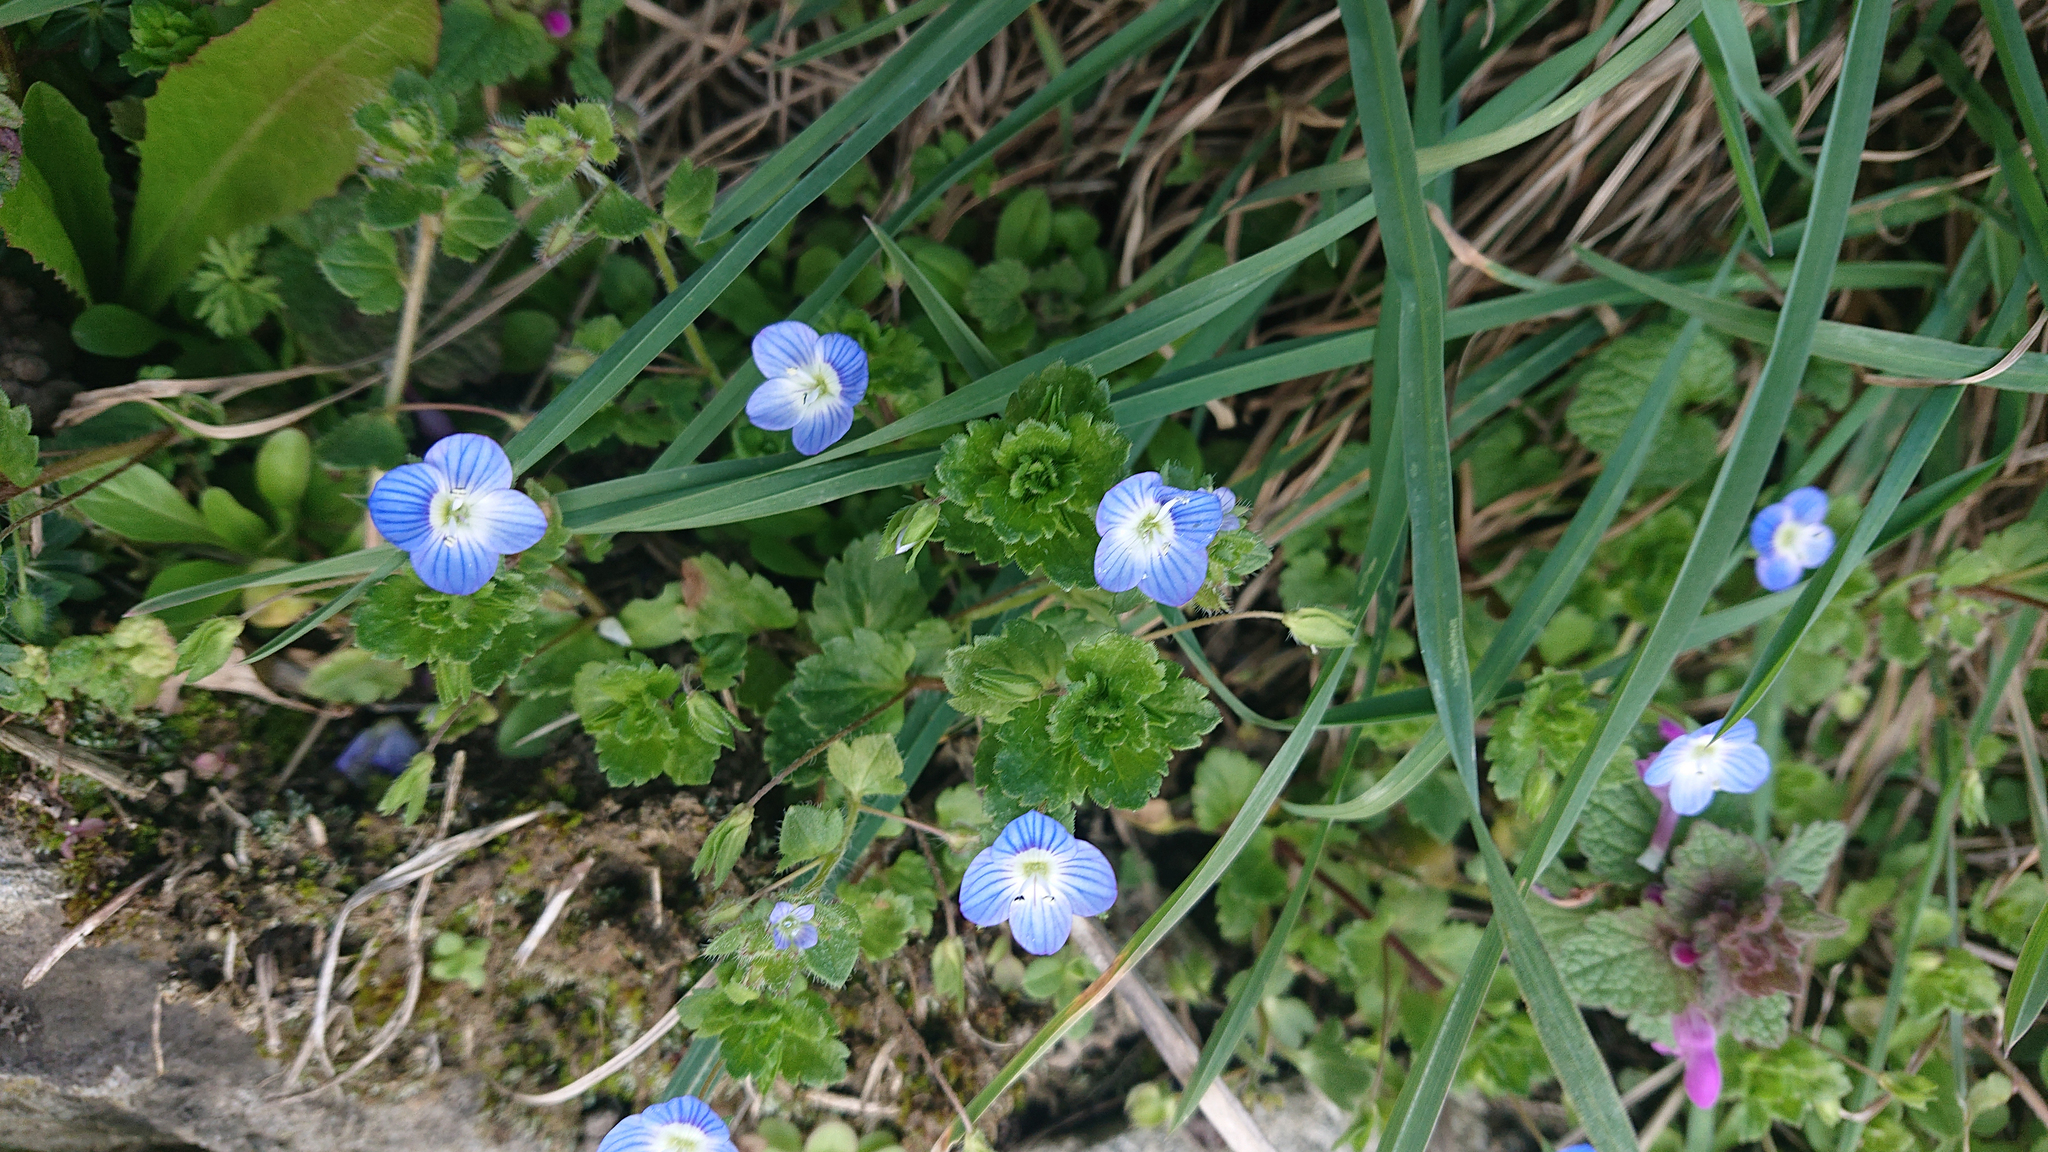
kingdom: Plantae
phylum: Tracheophyta
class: Magnoliopsida
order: Lamiales
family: Plantaginaceae
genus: Veronica
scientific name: Veronica persica
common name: Common field-speedwell
